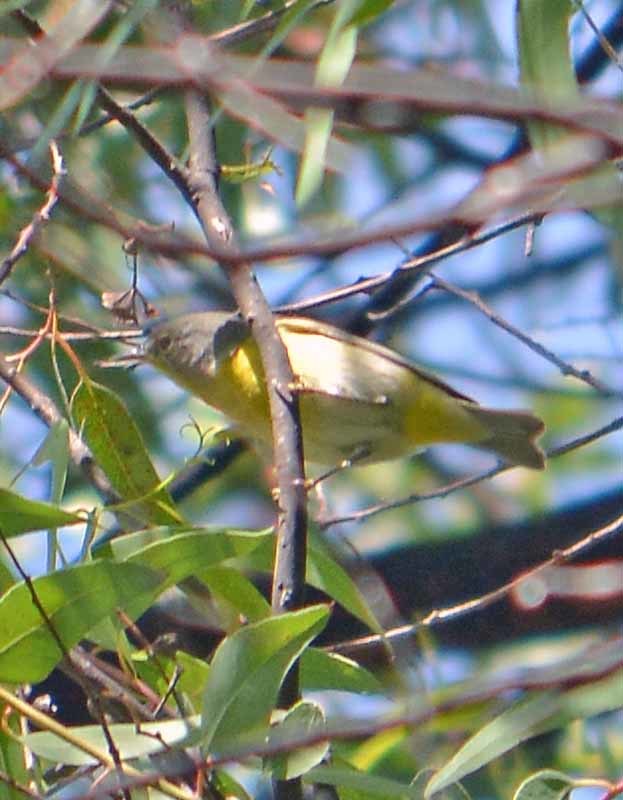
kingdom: Animalia
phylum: Chordata
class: Aves
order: Passeriformes
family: Parulidae
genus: Leiothlypis
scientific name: Leiothlypis ruficapilla
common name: Nashville warbler
